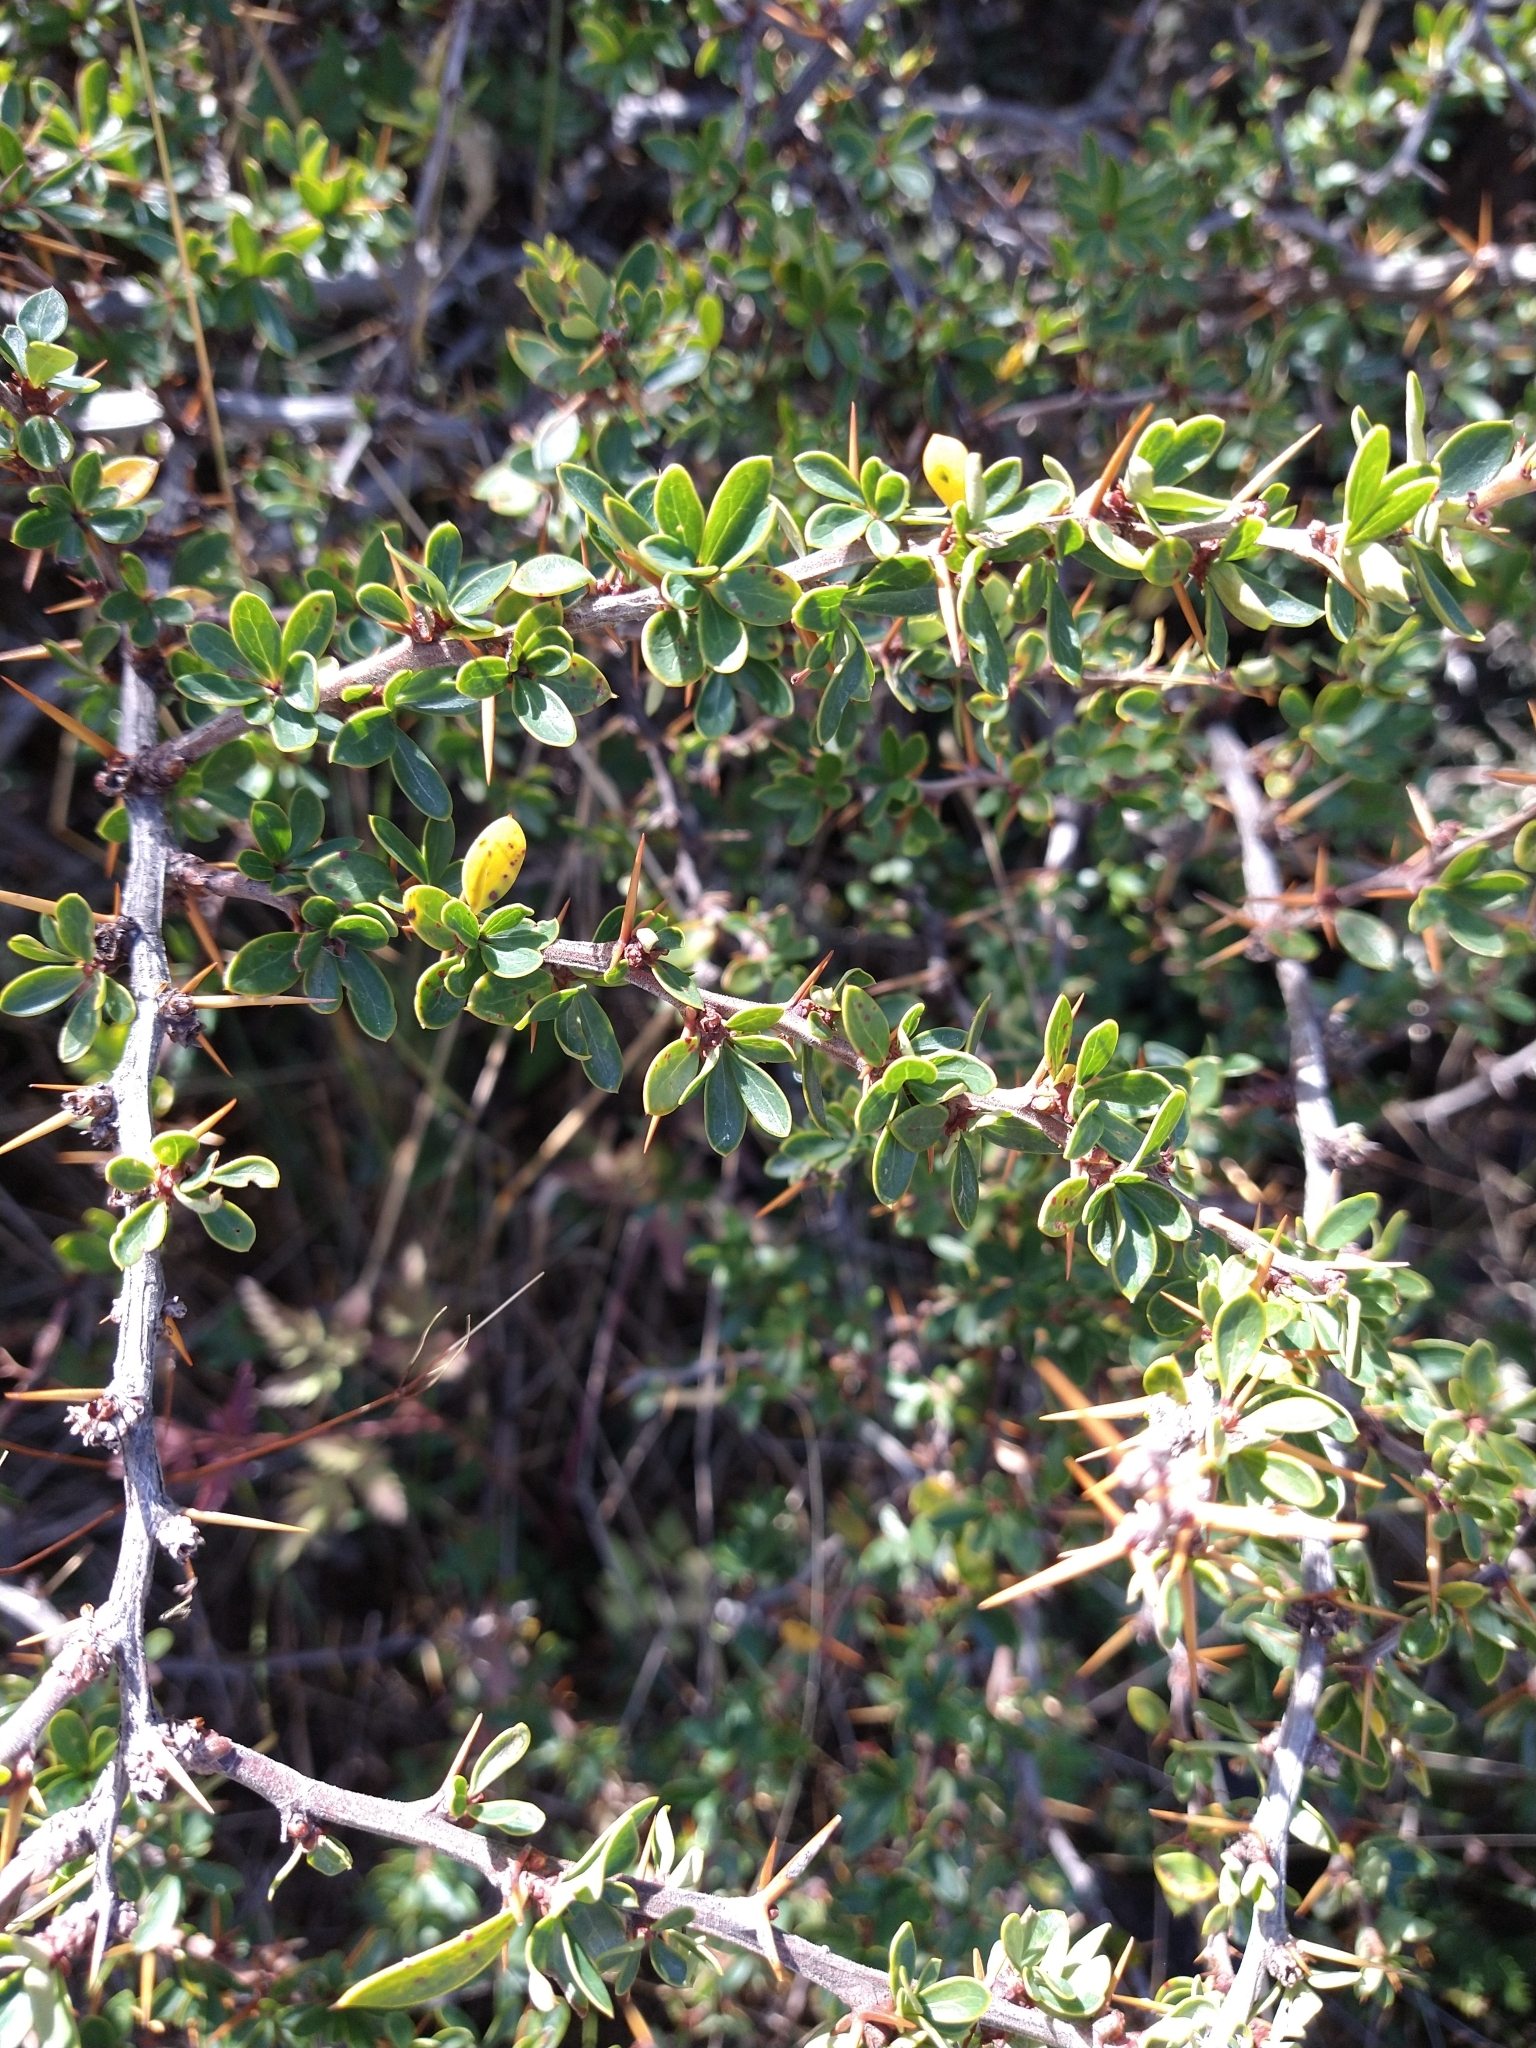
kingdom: Plantae
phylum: Tracheophyta
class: Magnoliopsida
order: Ranunculales
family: Berberidaceae
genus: Berberis
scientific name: Berberis microphylla
